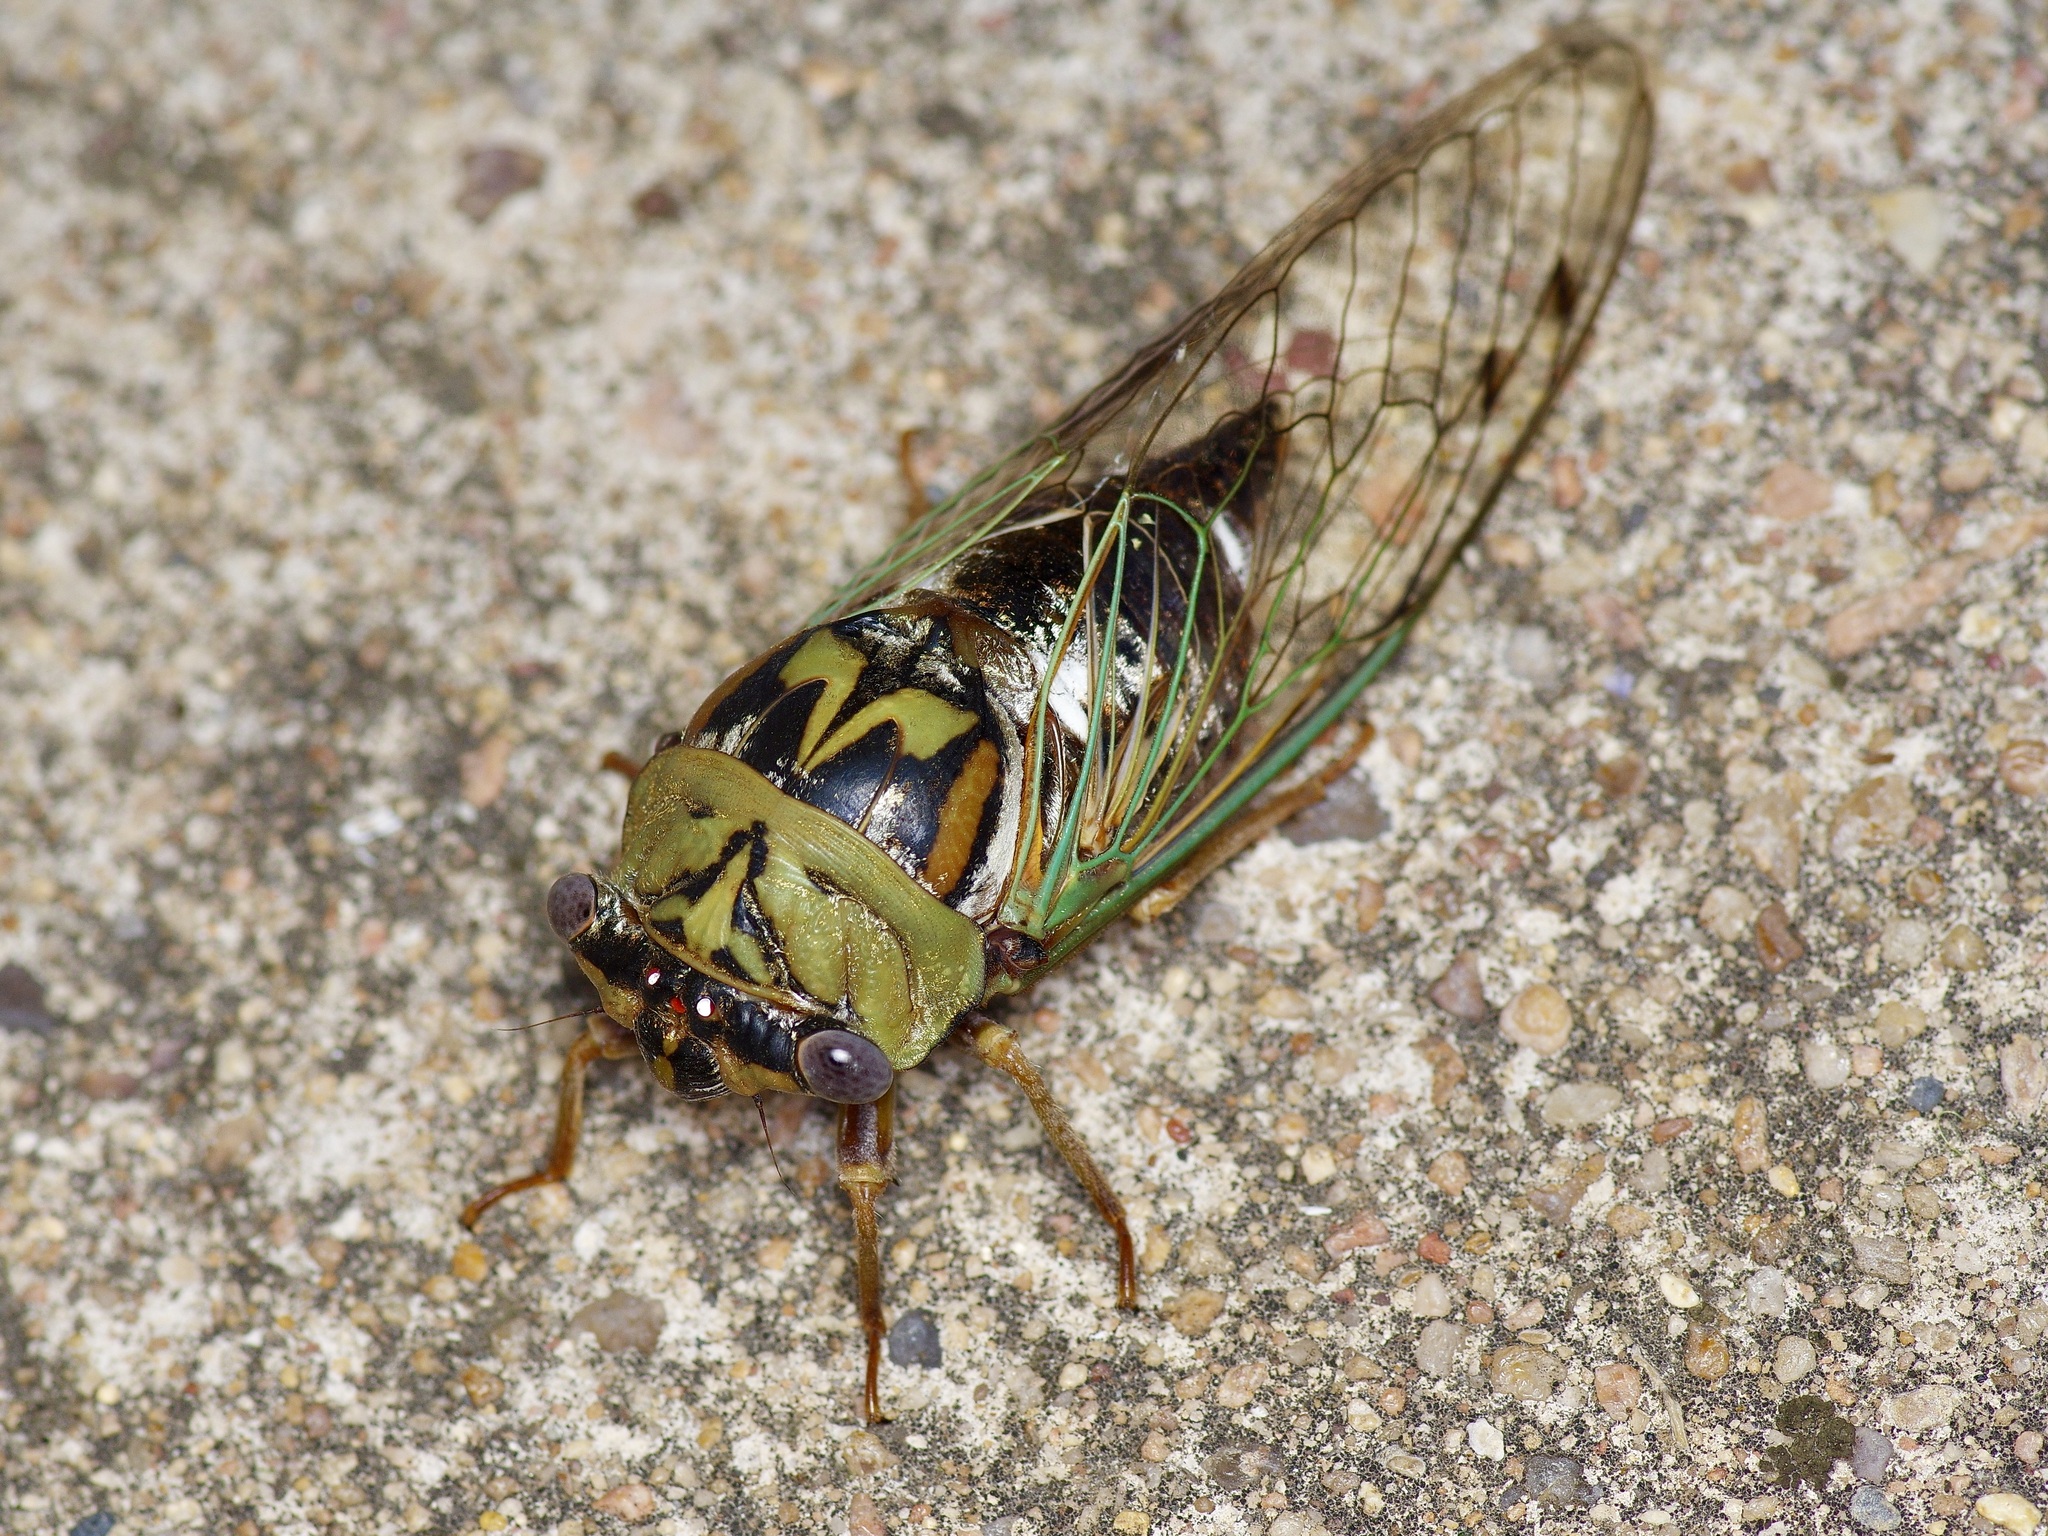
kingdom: Animalia
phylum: Arthropoda
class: Insecta
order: Hemiptera
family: Cicadidae
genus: Megatibicen
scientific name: Megatibicen resh
